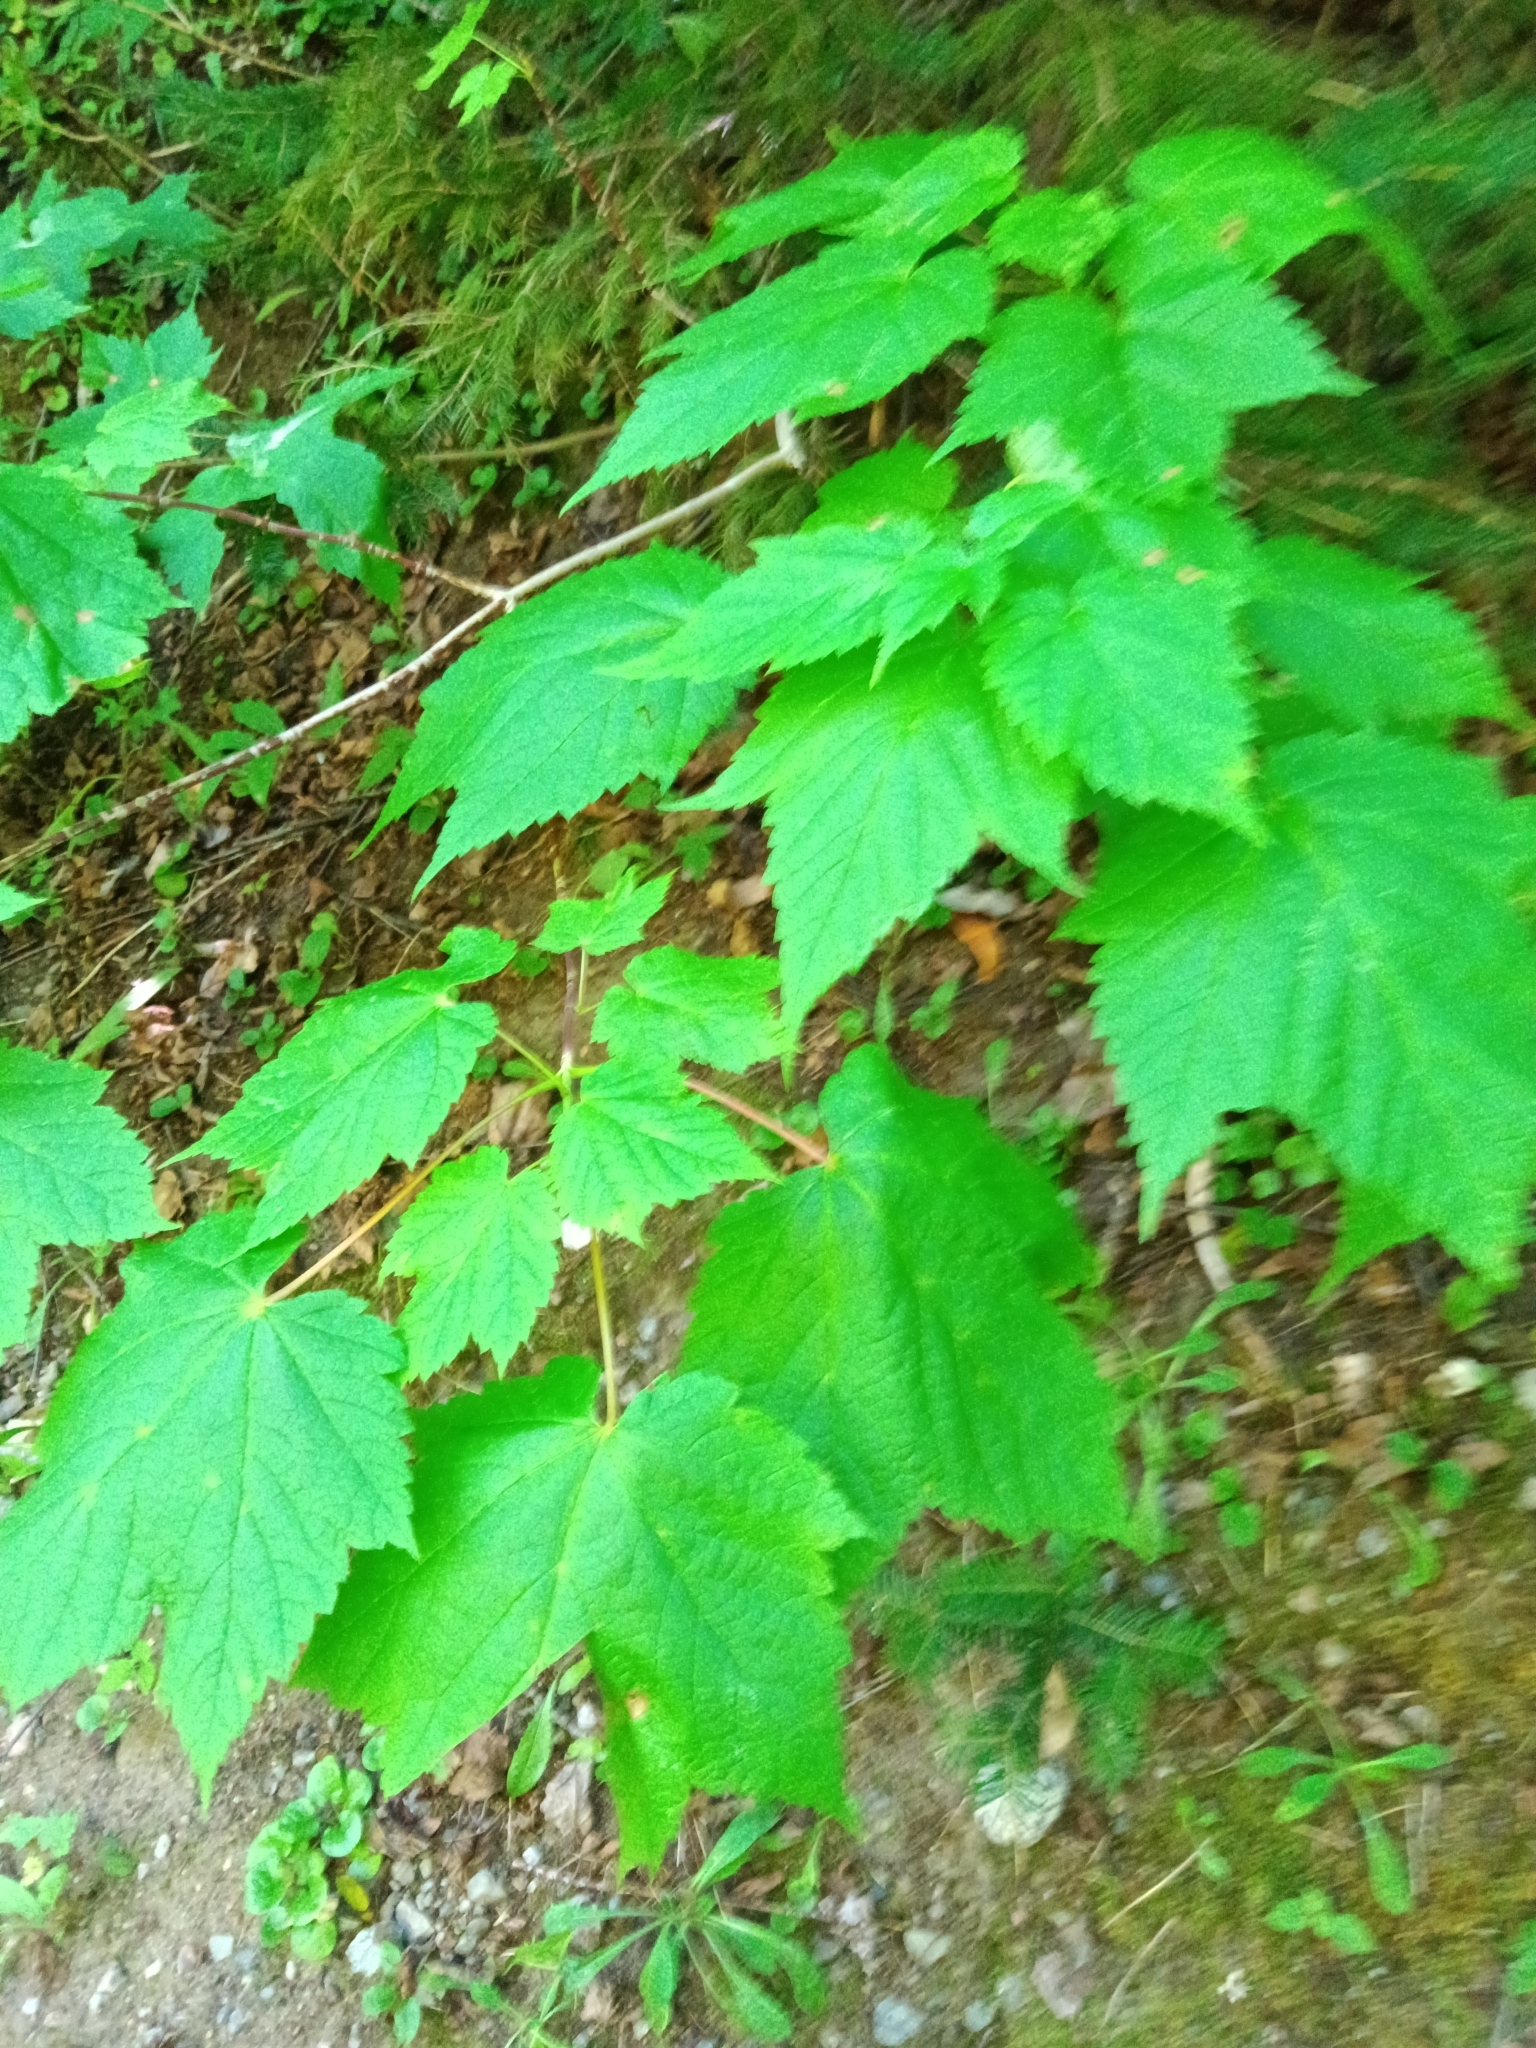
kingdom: Plantae
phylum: Tracheophyta
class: Magnoliopsida
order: Sapindales
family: Sapindaceae
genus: Acer
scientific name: Acer spicatum
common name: Mountain maple
